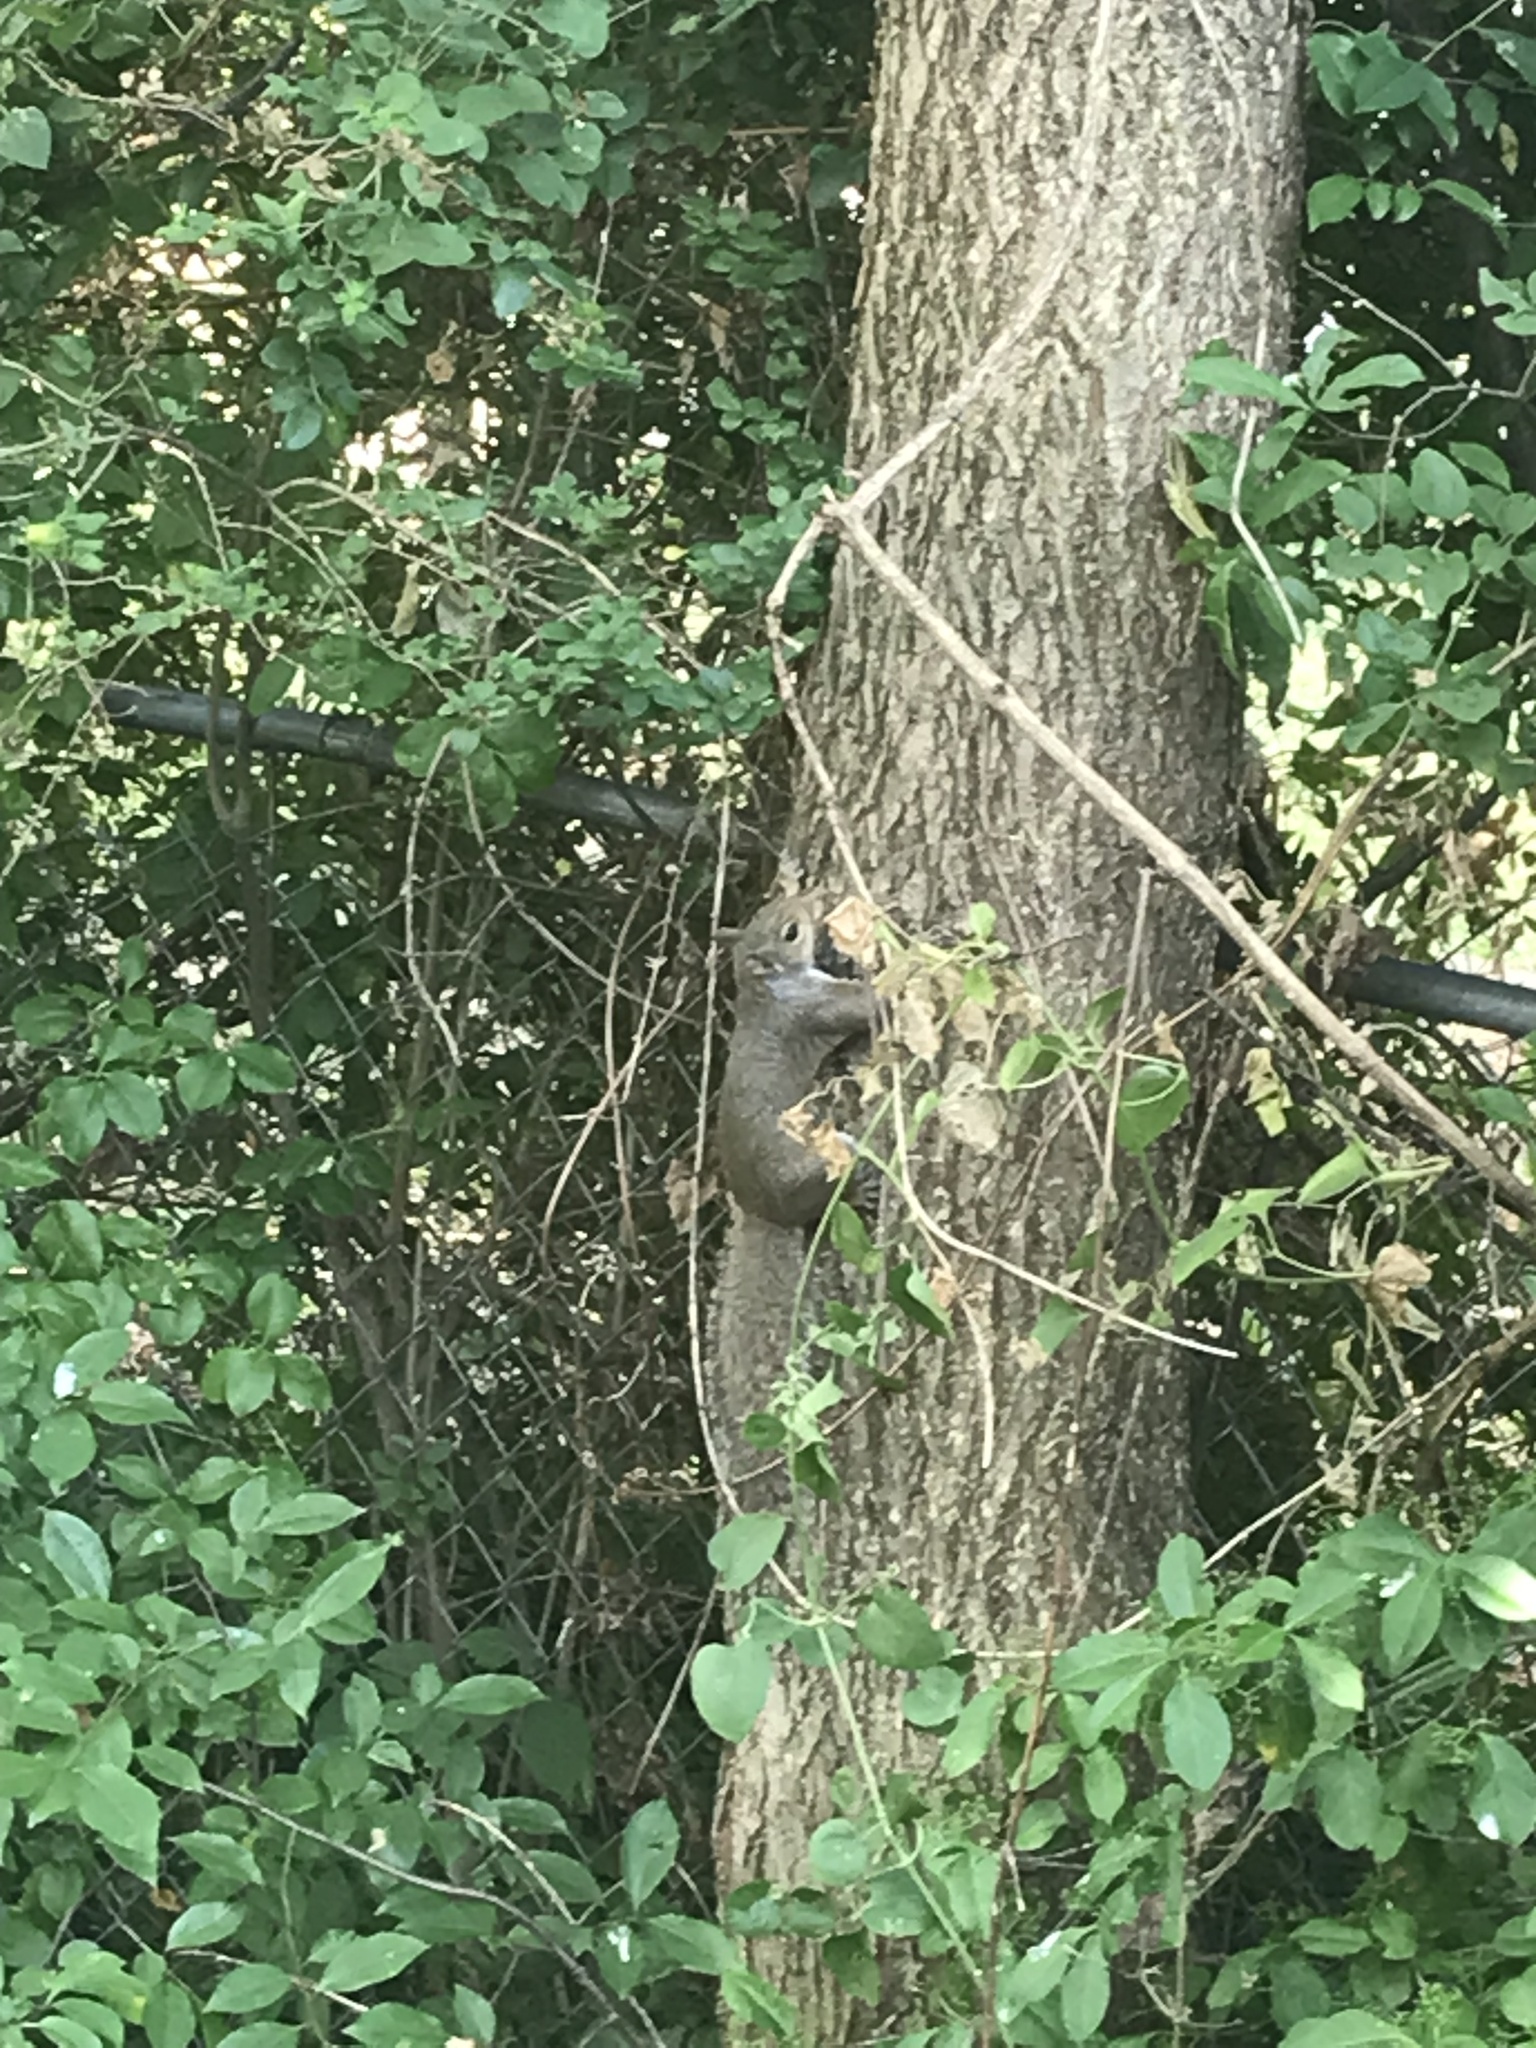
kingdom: Animalia
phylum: Chordata
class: Mammalia
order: Rodentia
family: Sciuridae
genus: Sciurus
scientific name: Sciurus carolinensis
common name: Eastern gray squirrel
